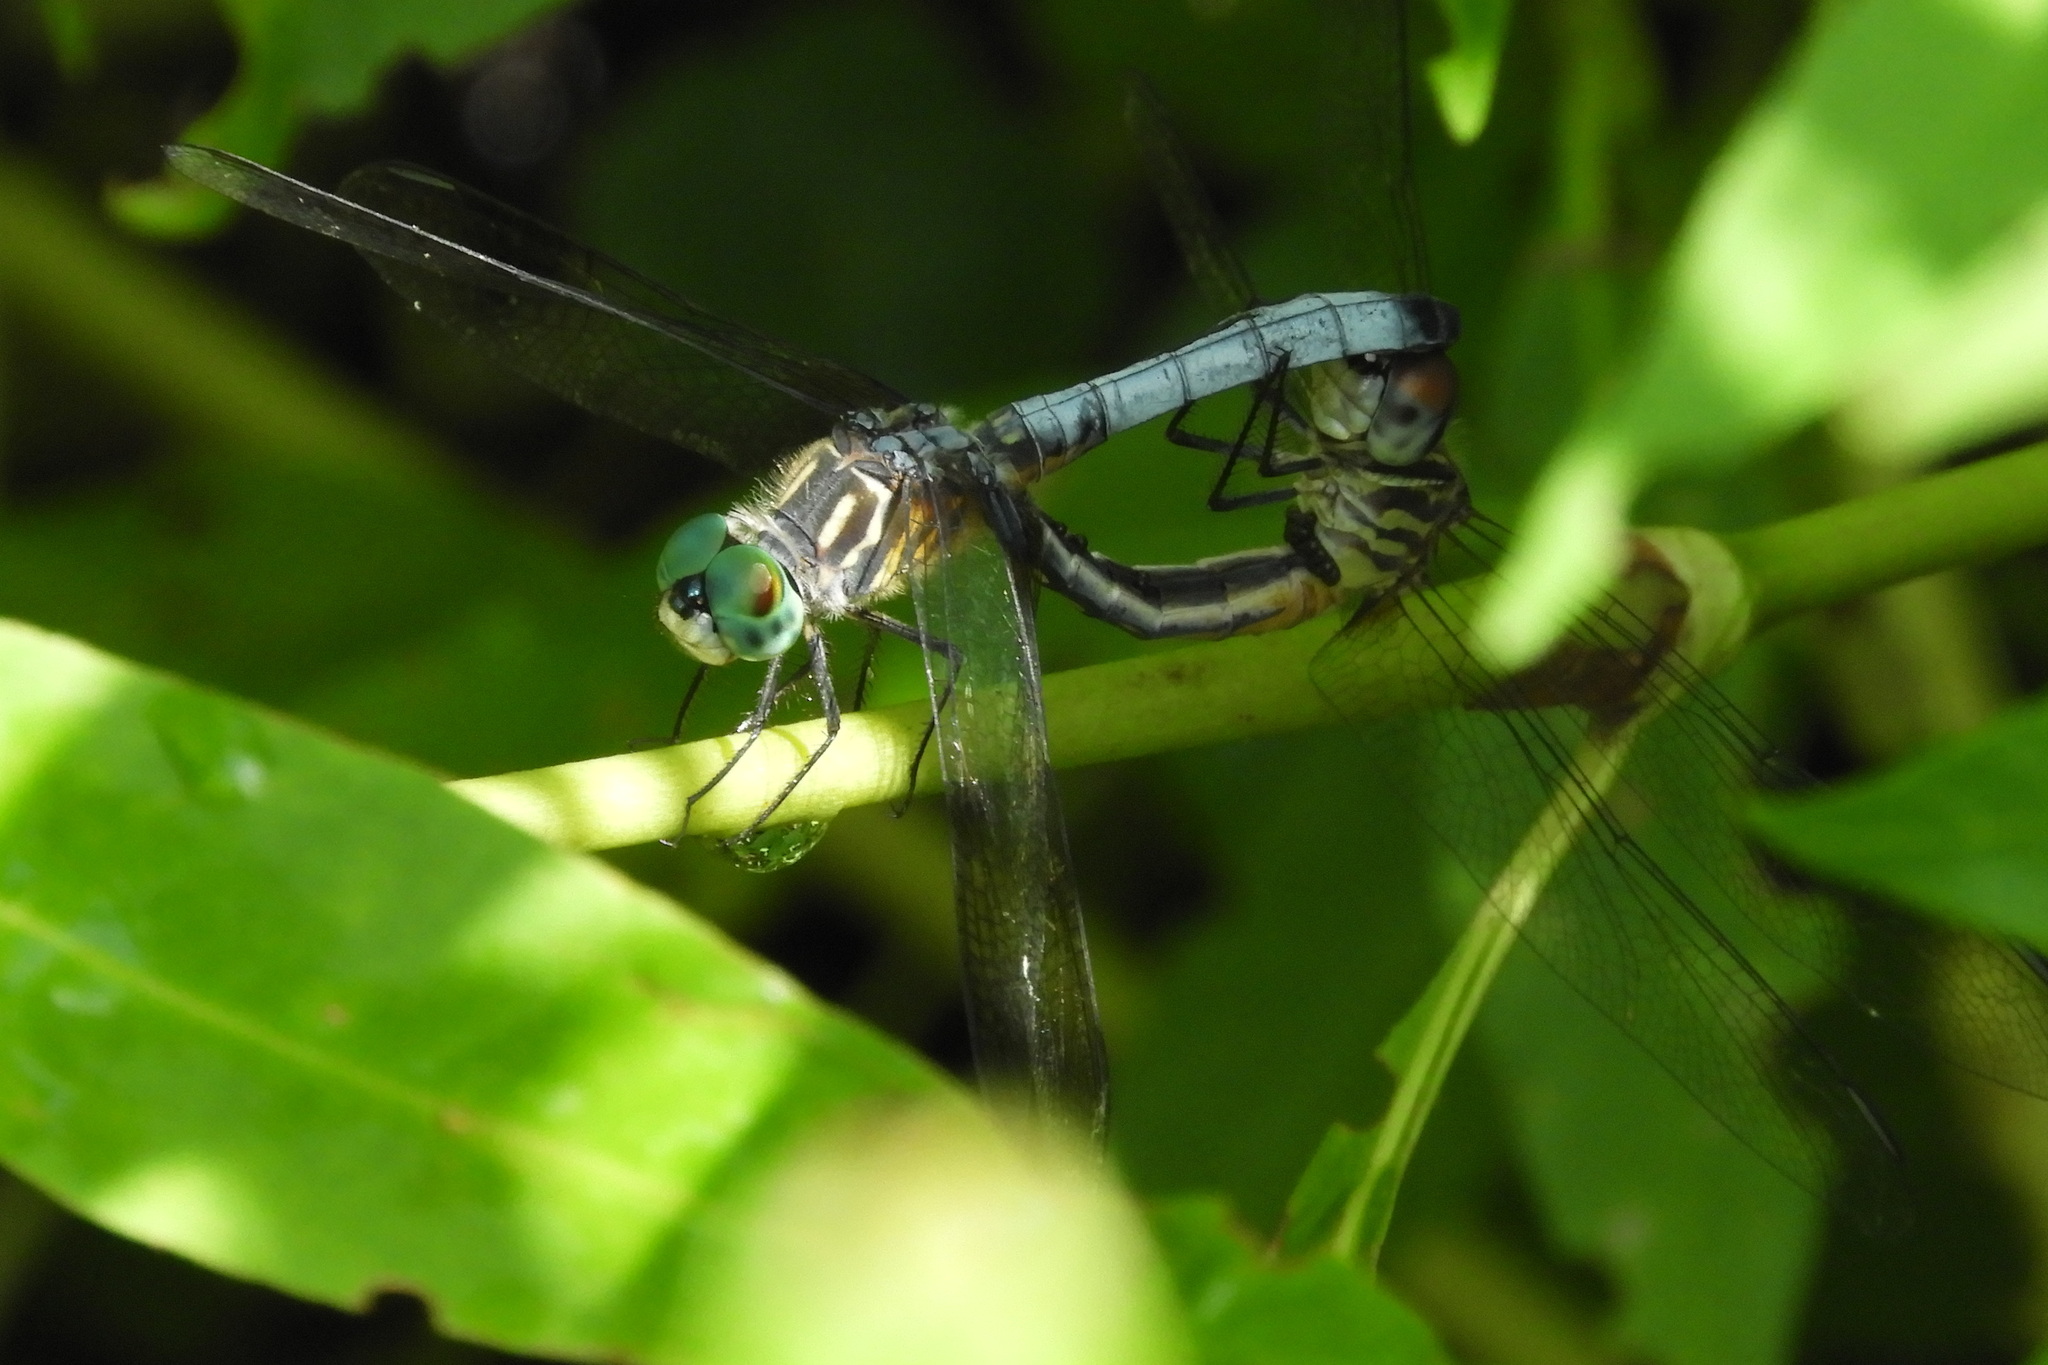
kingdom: Animalia
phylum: Arthropoda
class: Insecta
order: Odonata
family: Libellulidae
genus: Pachydiplax
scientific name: Pachydiplax longipennis
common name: Blue dasher
